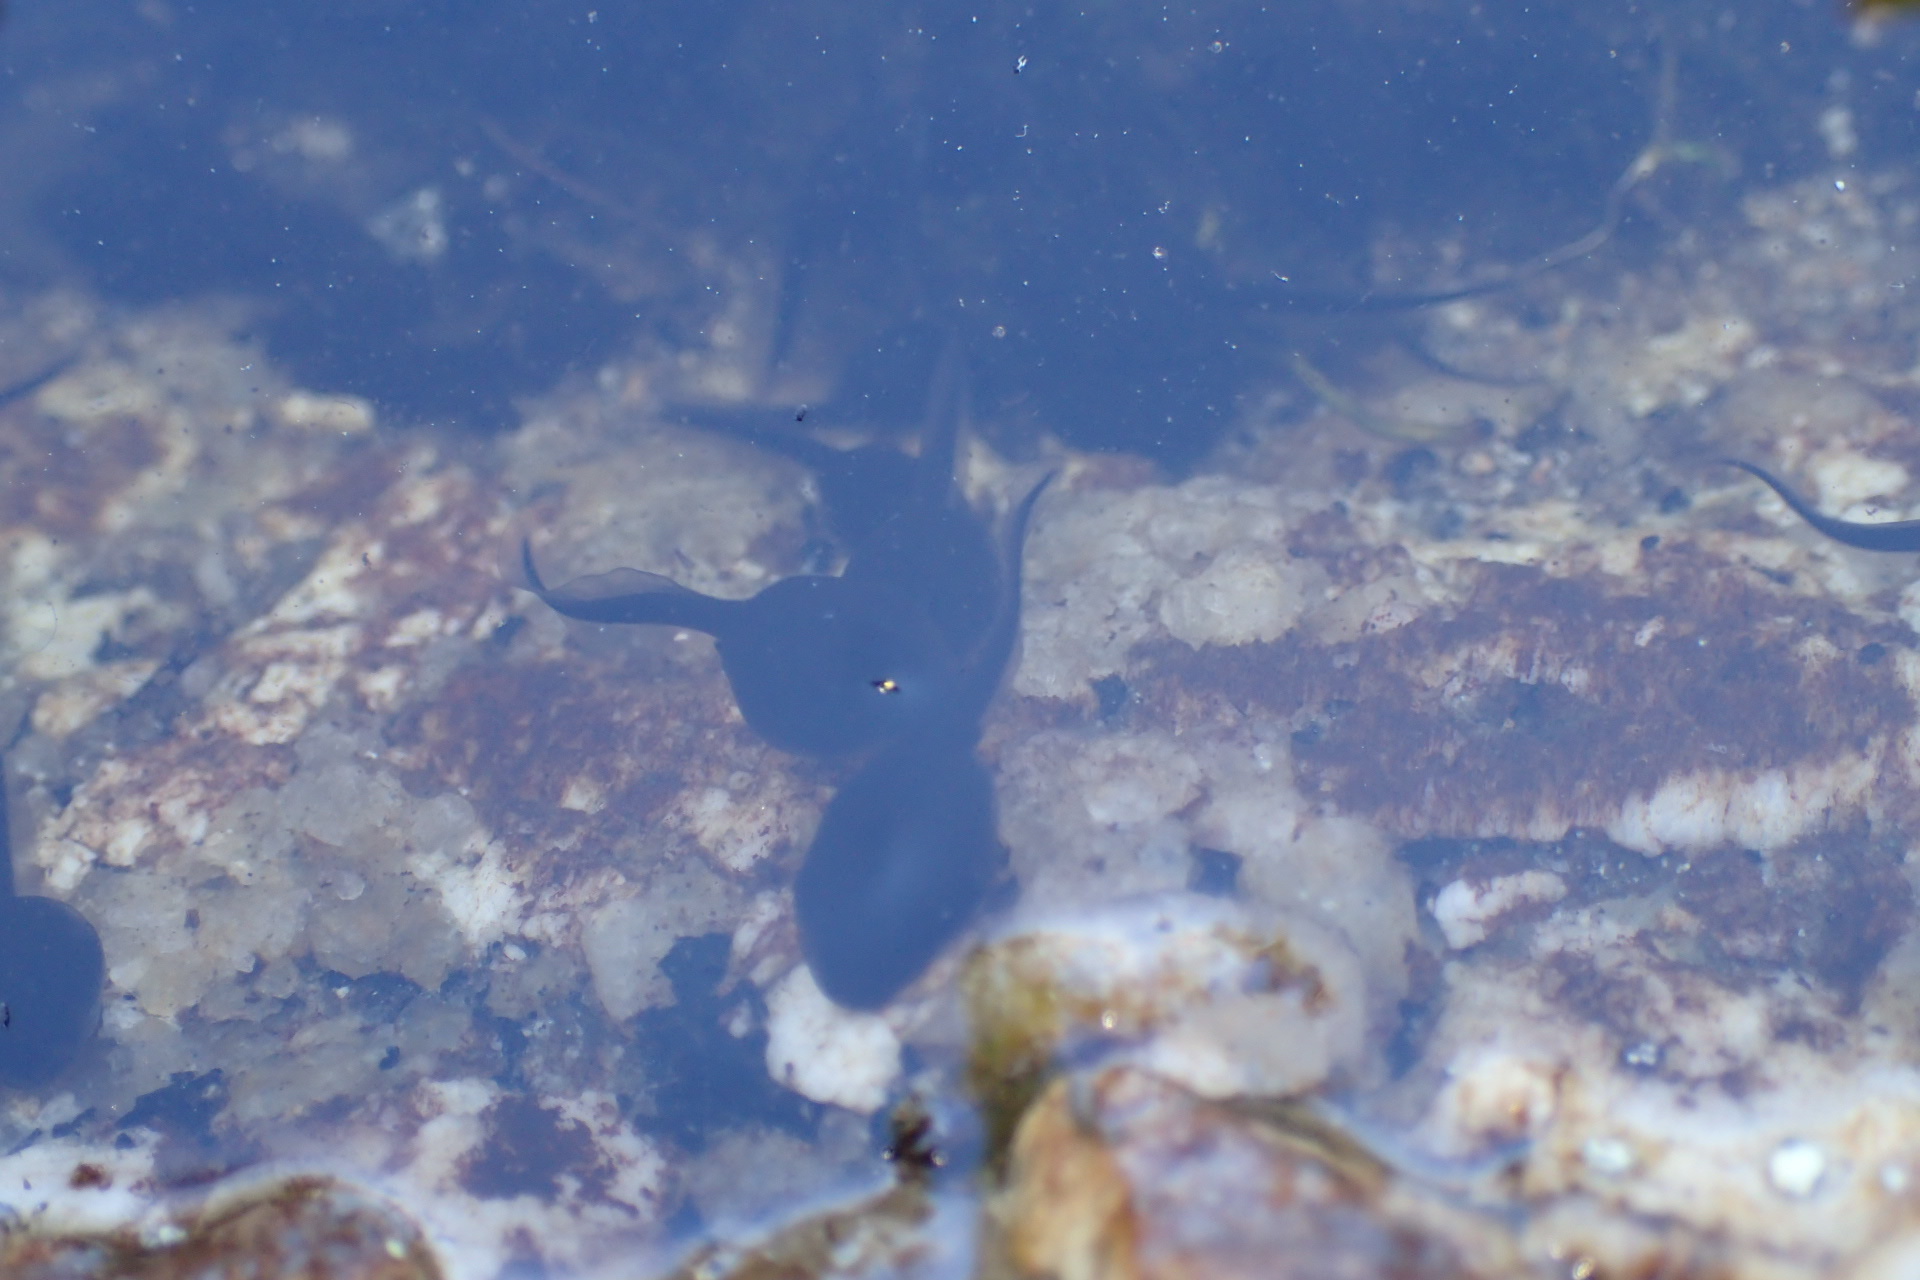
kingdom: Animalia
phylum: Chordata
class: Amphibia
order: Anura
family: Bufonidae
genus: Anaxyrus
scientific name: Anaxyrus americanus
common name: American toad
